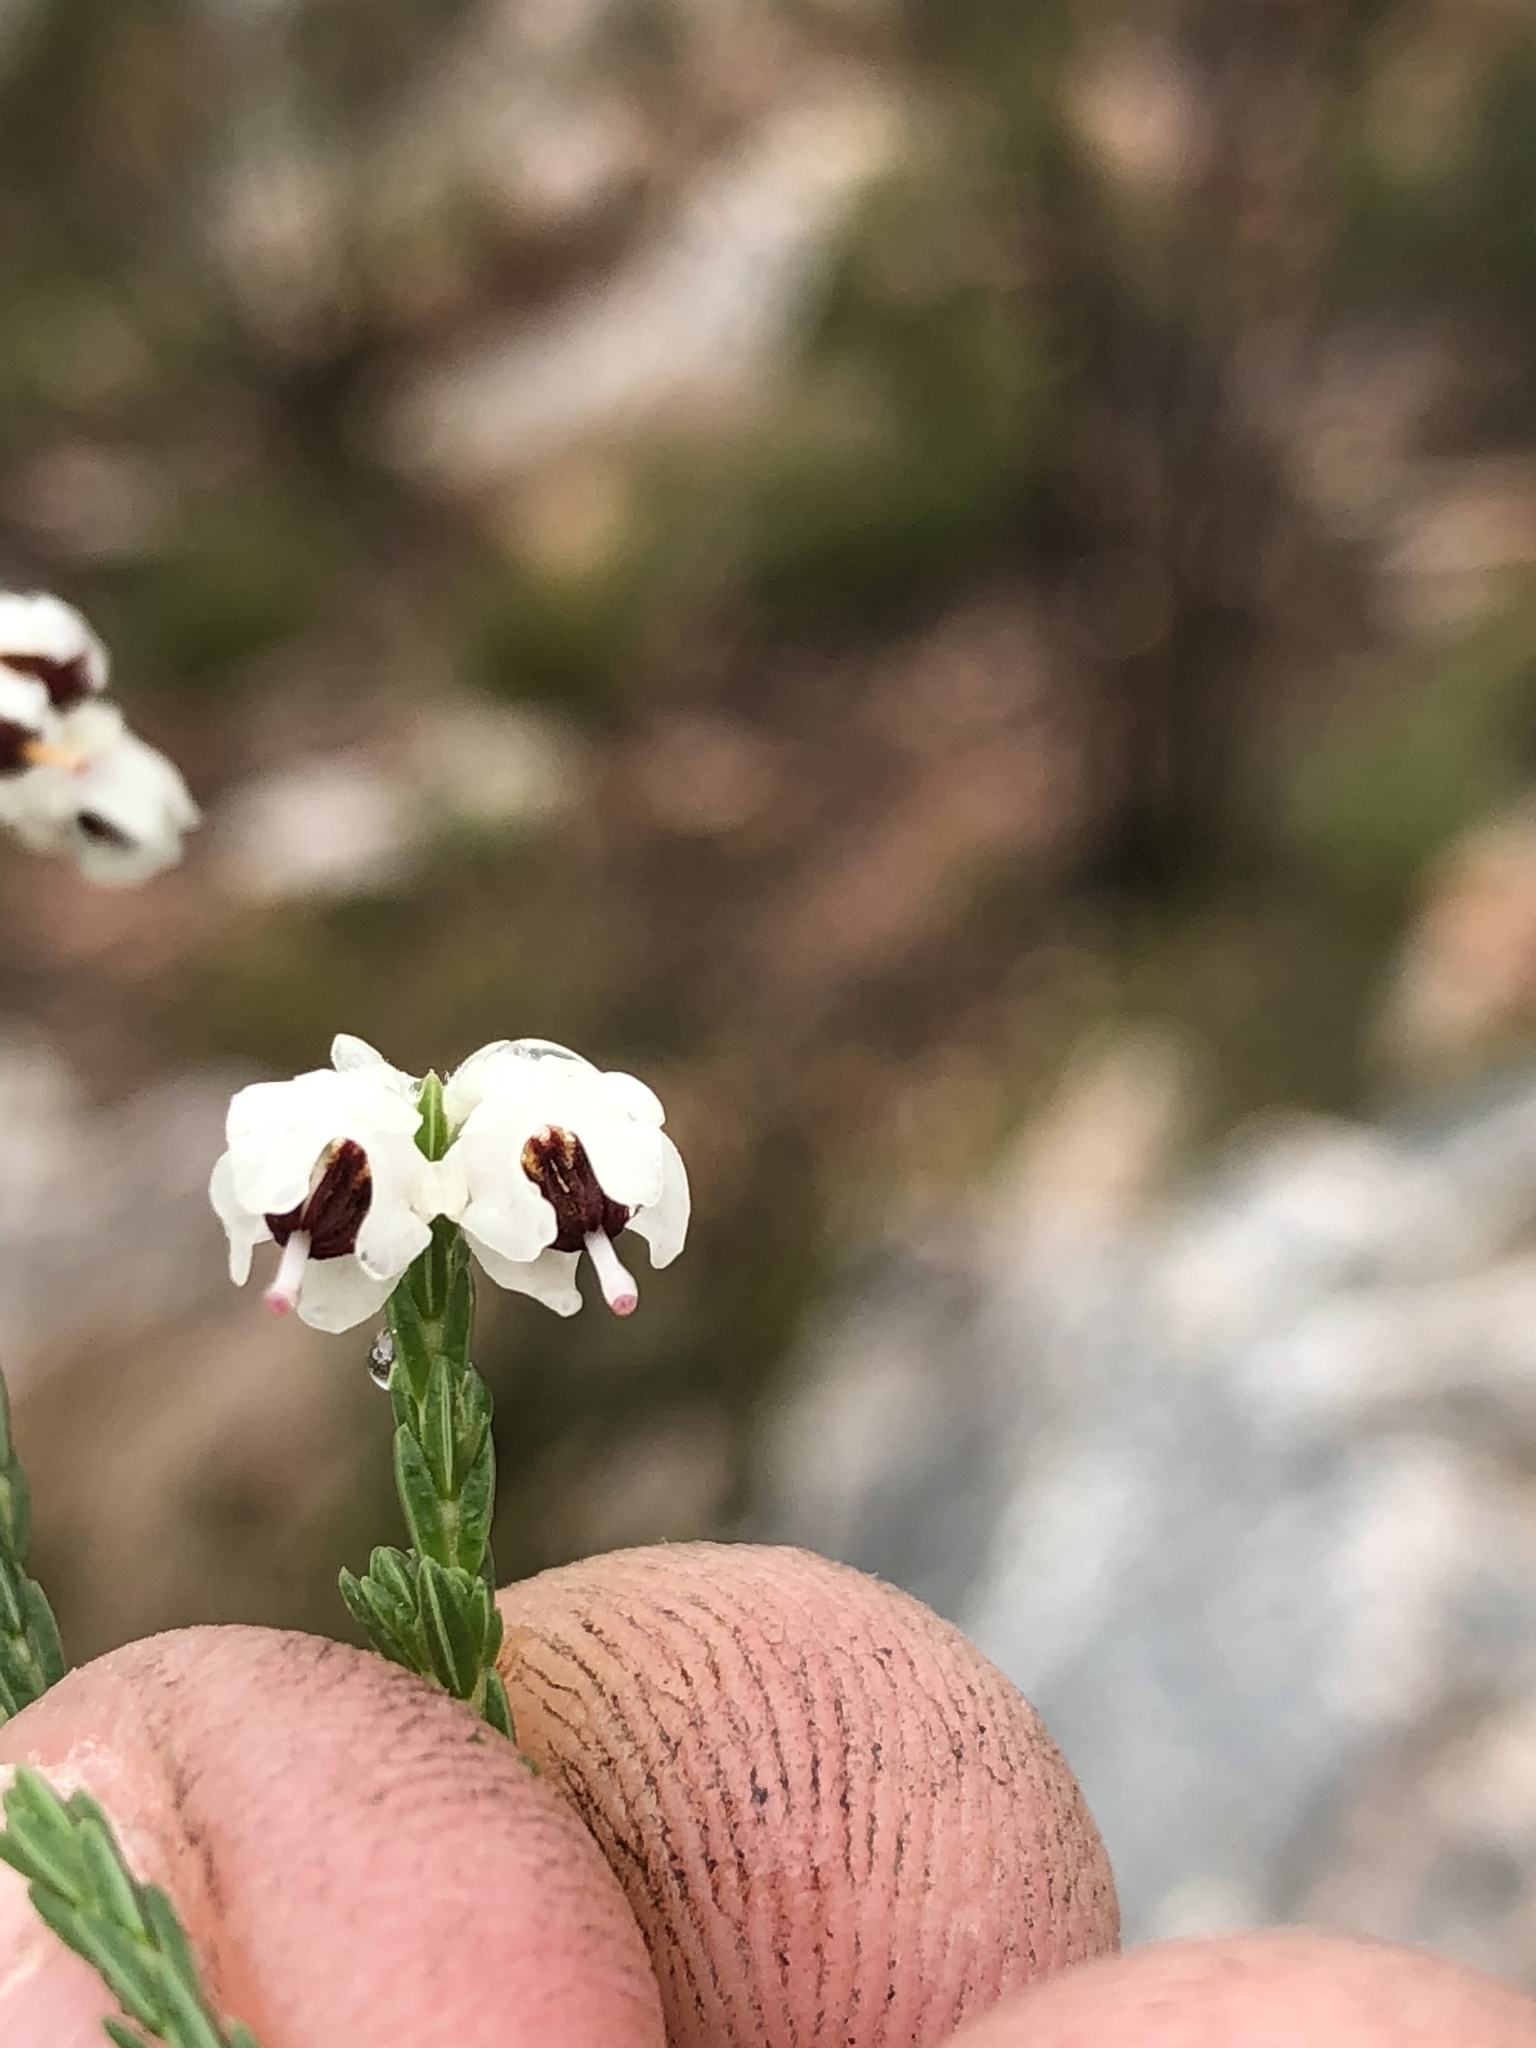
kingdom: Plantae
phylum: Tracheophyta
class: Magnoliopsida
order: Ericales
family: Ericaceae
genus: Erica
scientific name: Erica pseudocalycina
